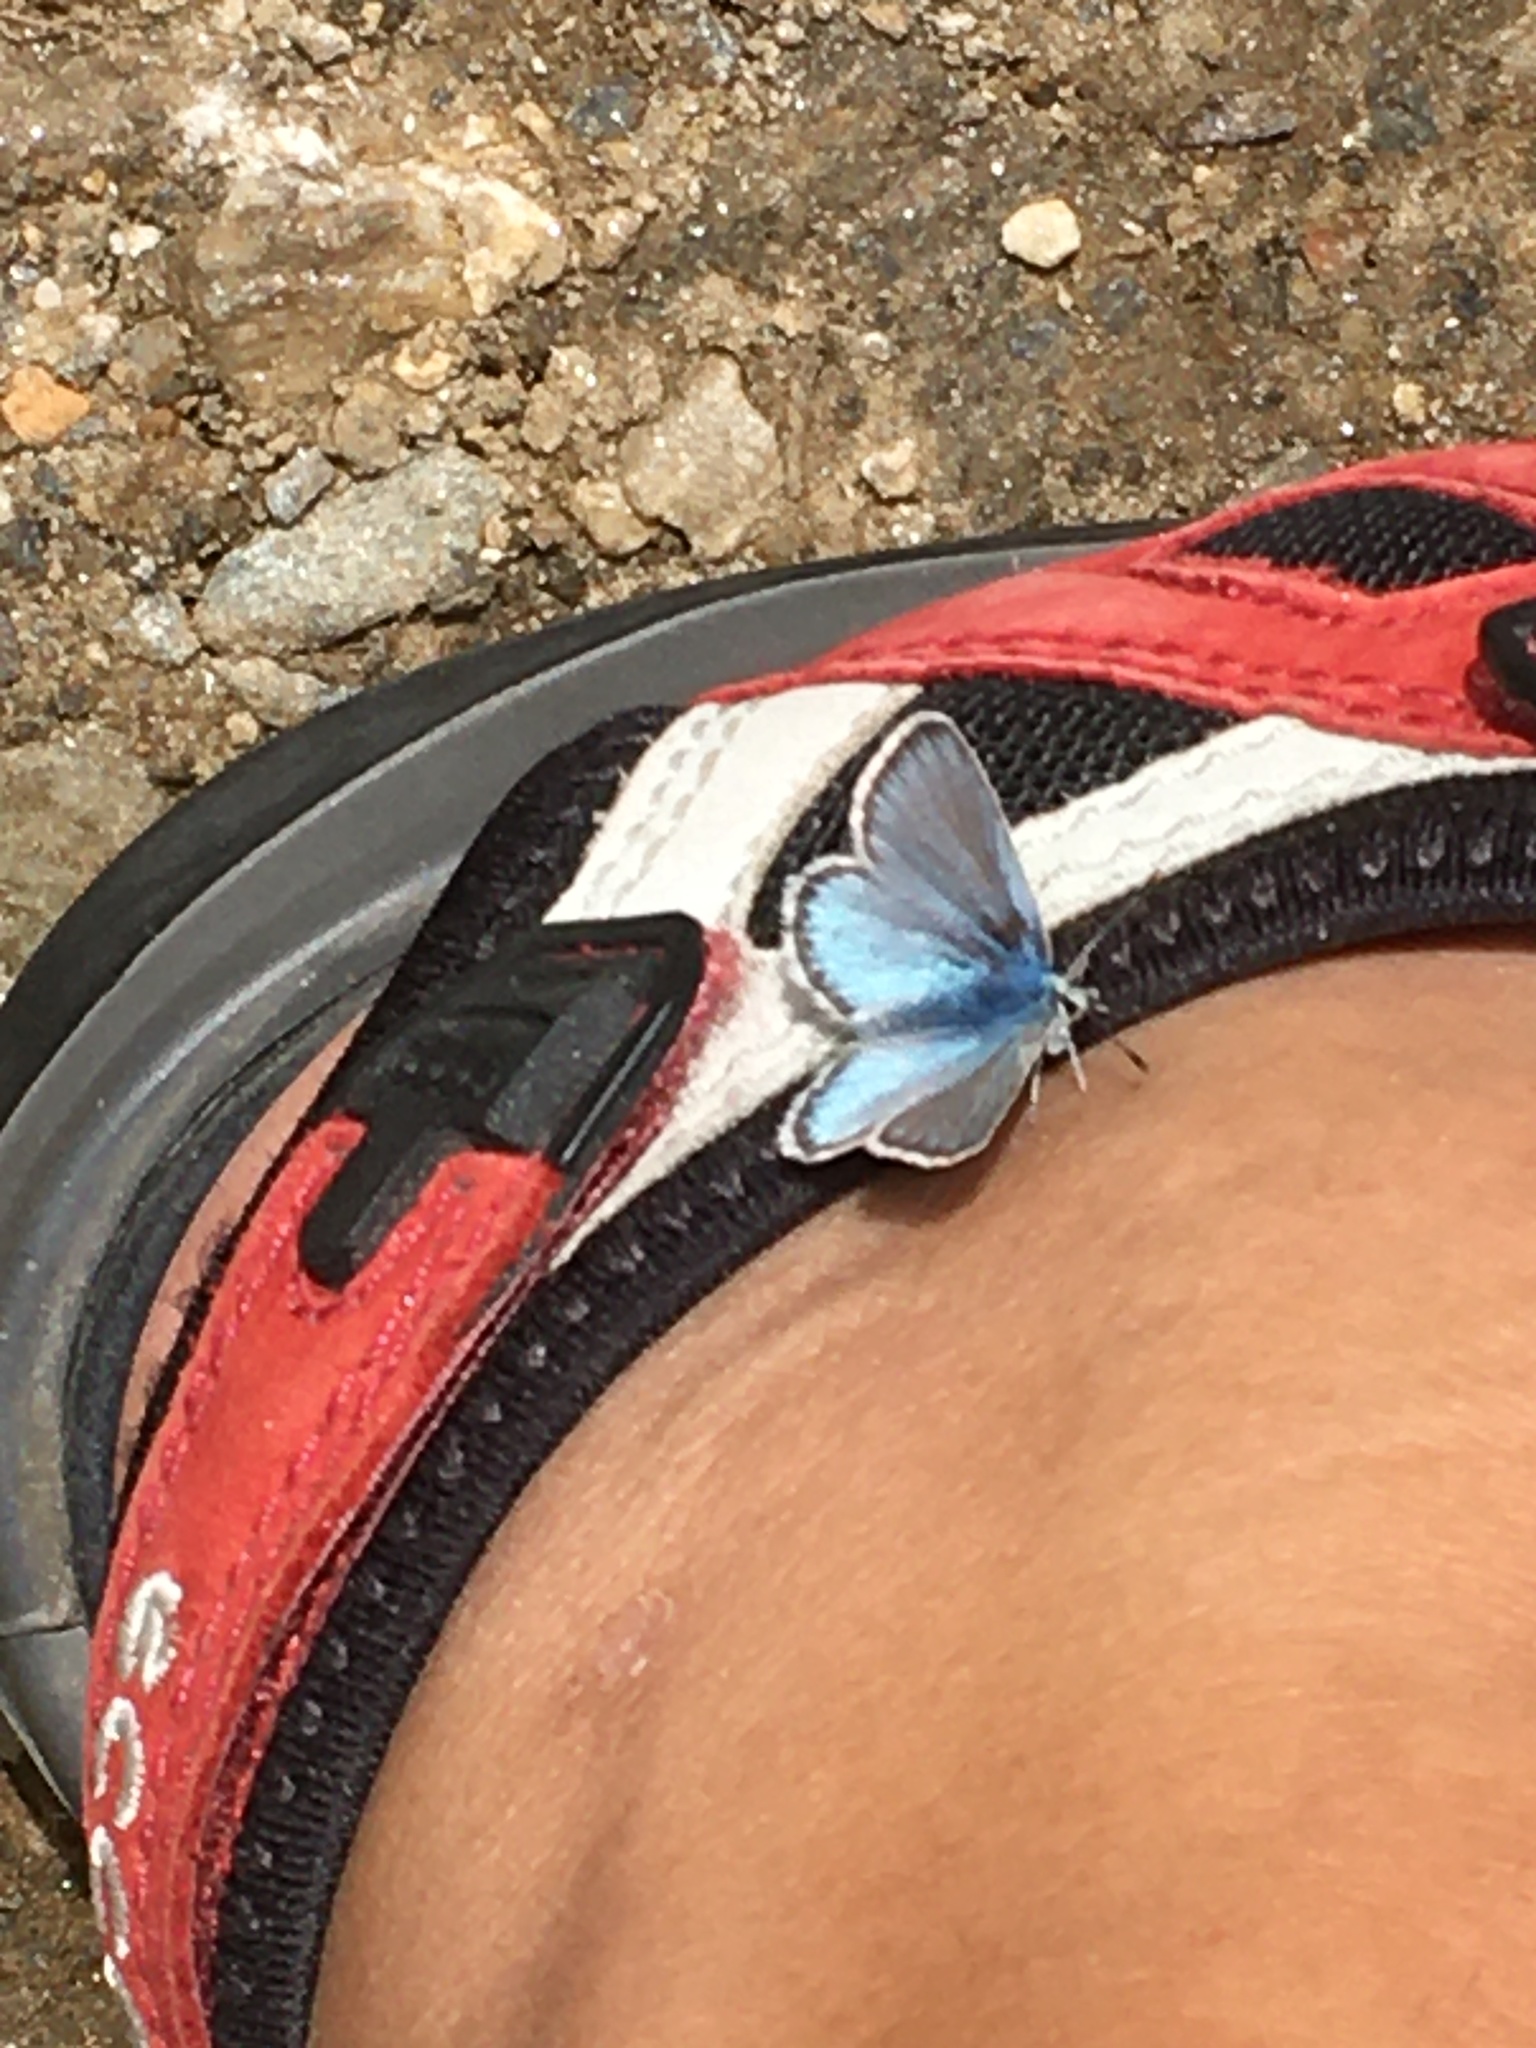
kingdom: Animalia
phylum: Arthropoda
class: Insecta
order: Lepidoptera
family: Lycaenidae
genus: Polyommatus
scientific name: Polyommatus eros
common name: Eros blue
